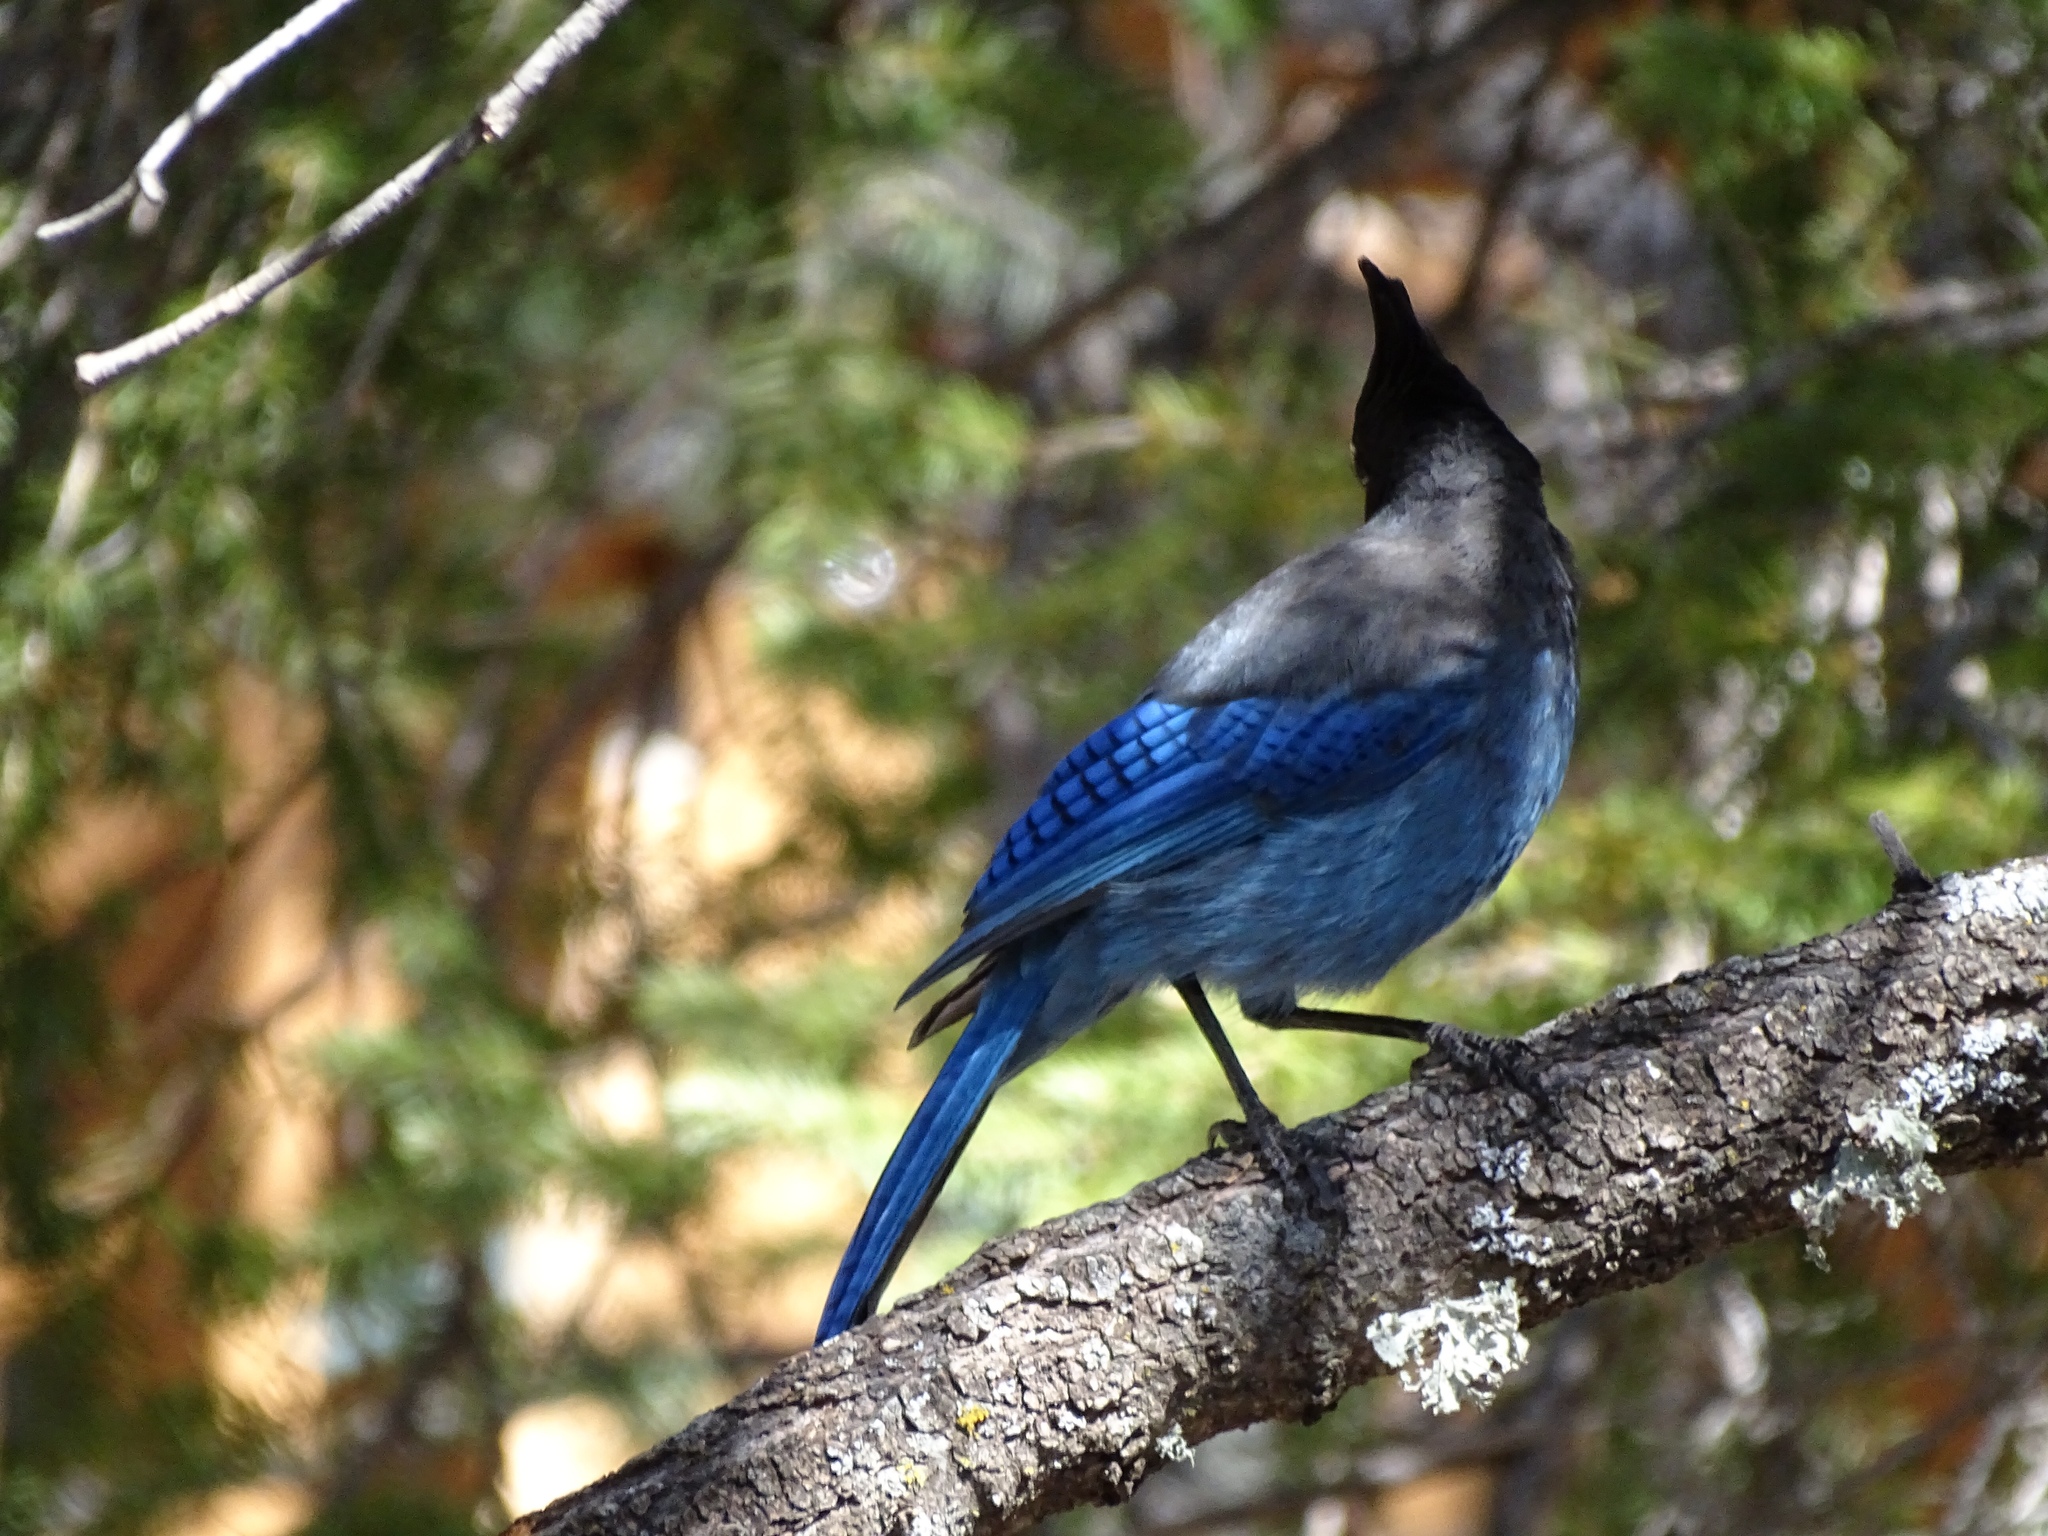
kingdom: Animalia
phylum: Chordata
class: Aves
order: Passeriformes
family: Corvidae
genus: Cyanocitta
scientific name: Cyanocitta stelleri
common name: Steller's jay
